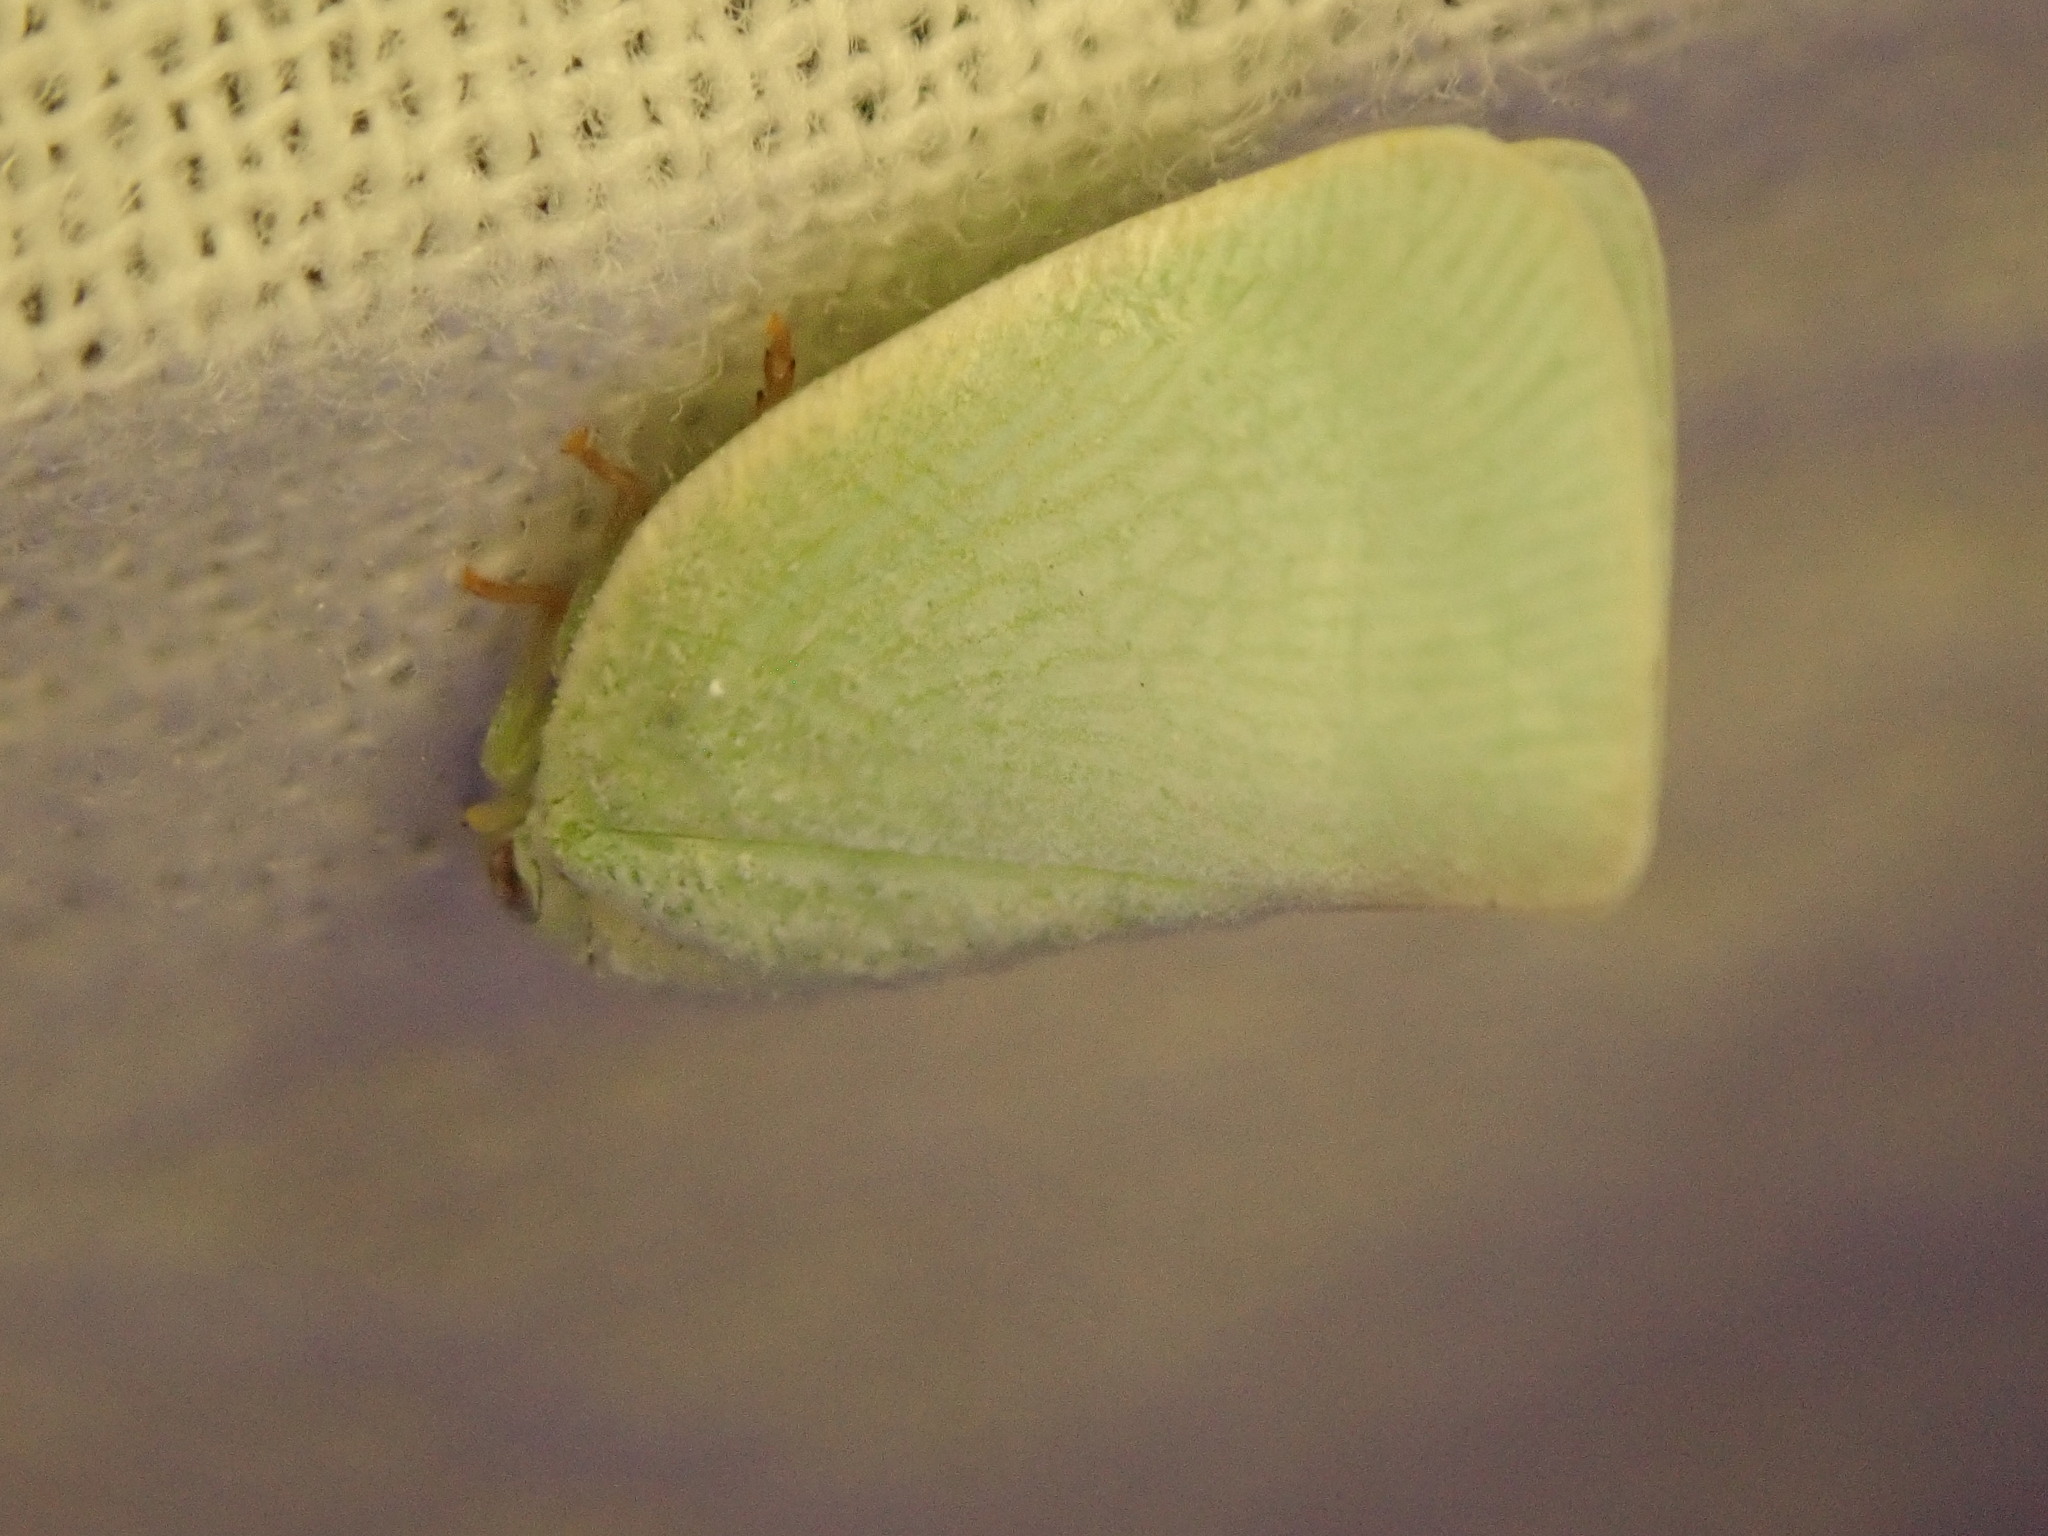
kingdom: Animalia
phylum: Arthropoda
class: Insecta
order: Hemiptera
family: Flatidae
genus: Flatormenis
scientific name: Flatormenis proxima
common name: Northern flatid planthopper
